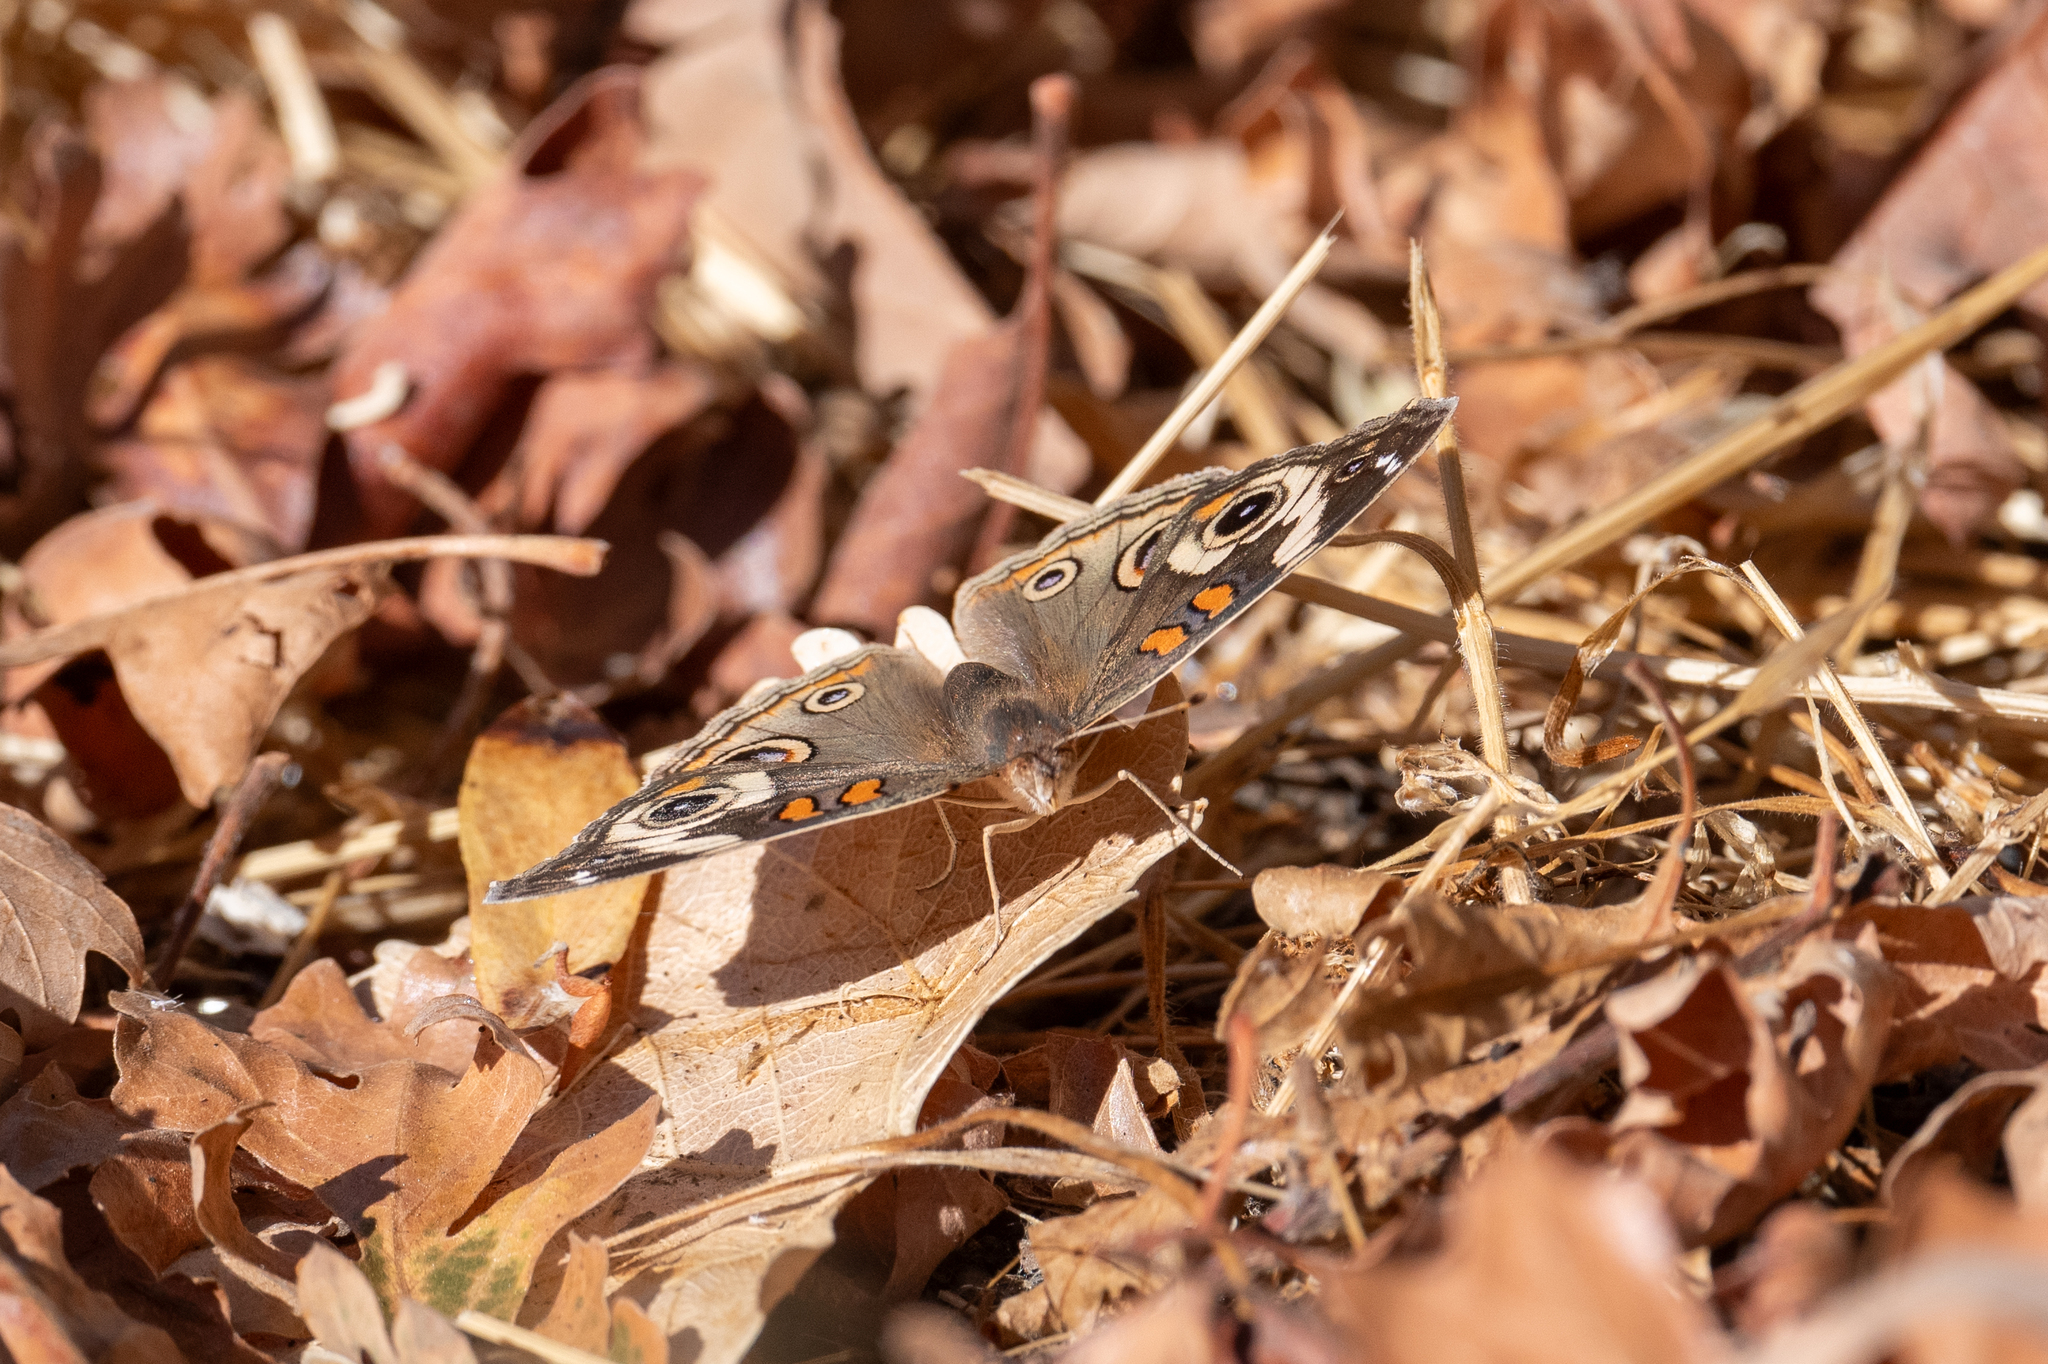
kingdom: Animalia
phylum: Arthropoda
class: Insecta
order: Lepidoptera
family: Nymphalidae
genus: Junonia
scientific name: Junonia grisea
